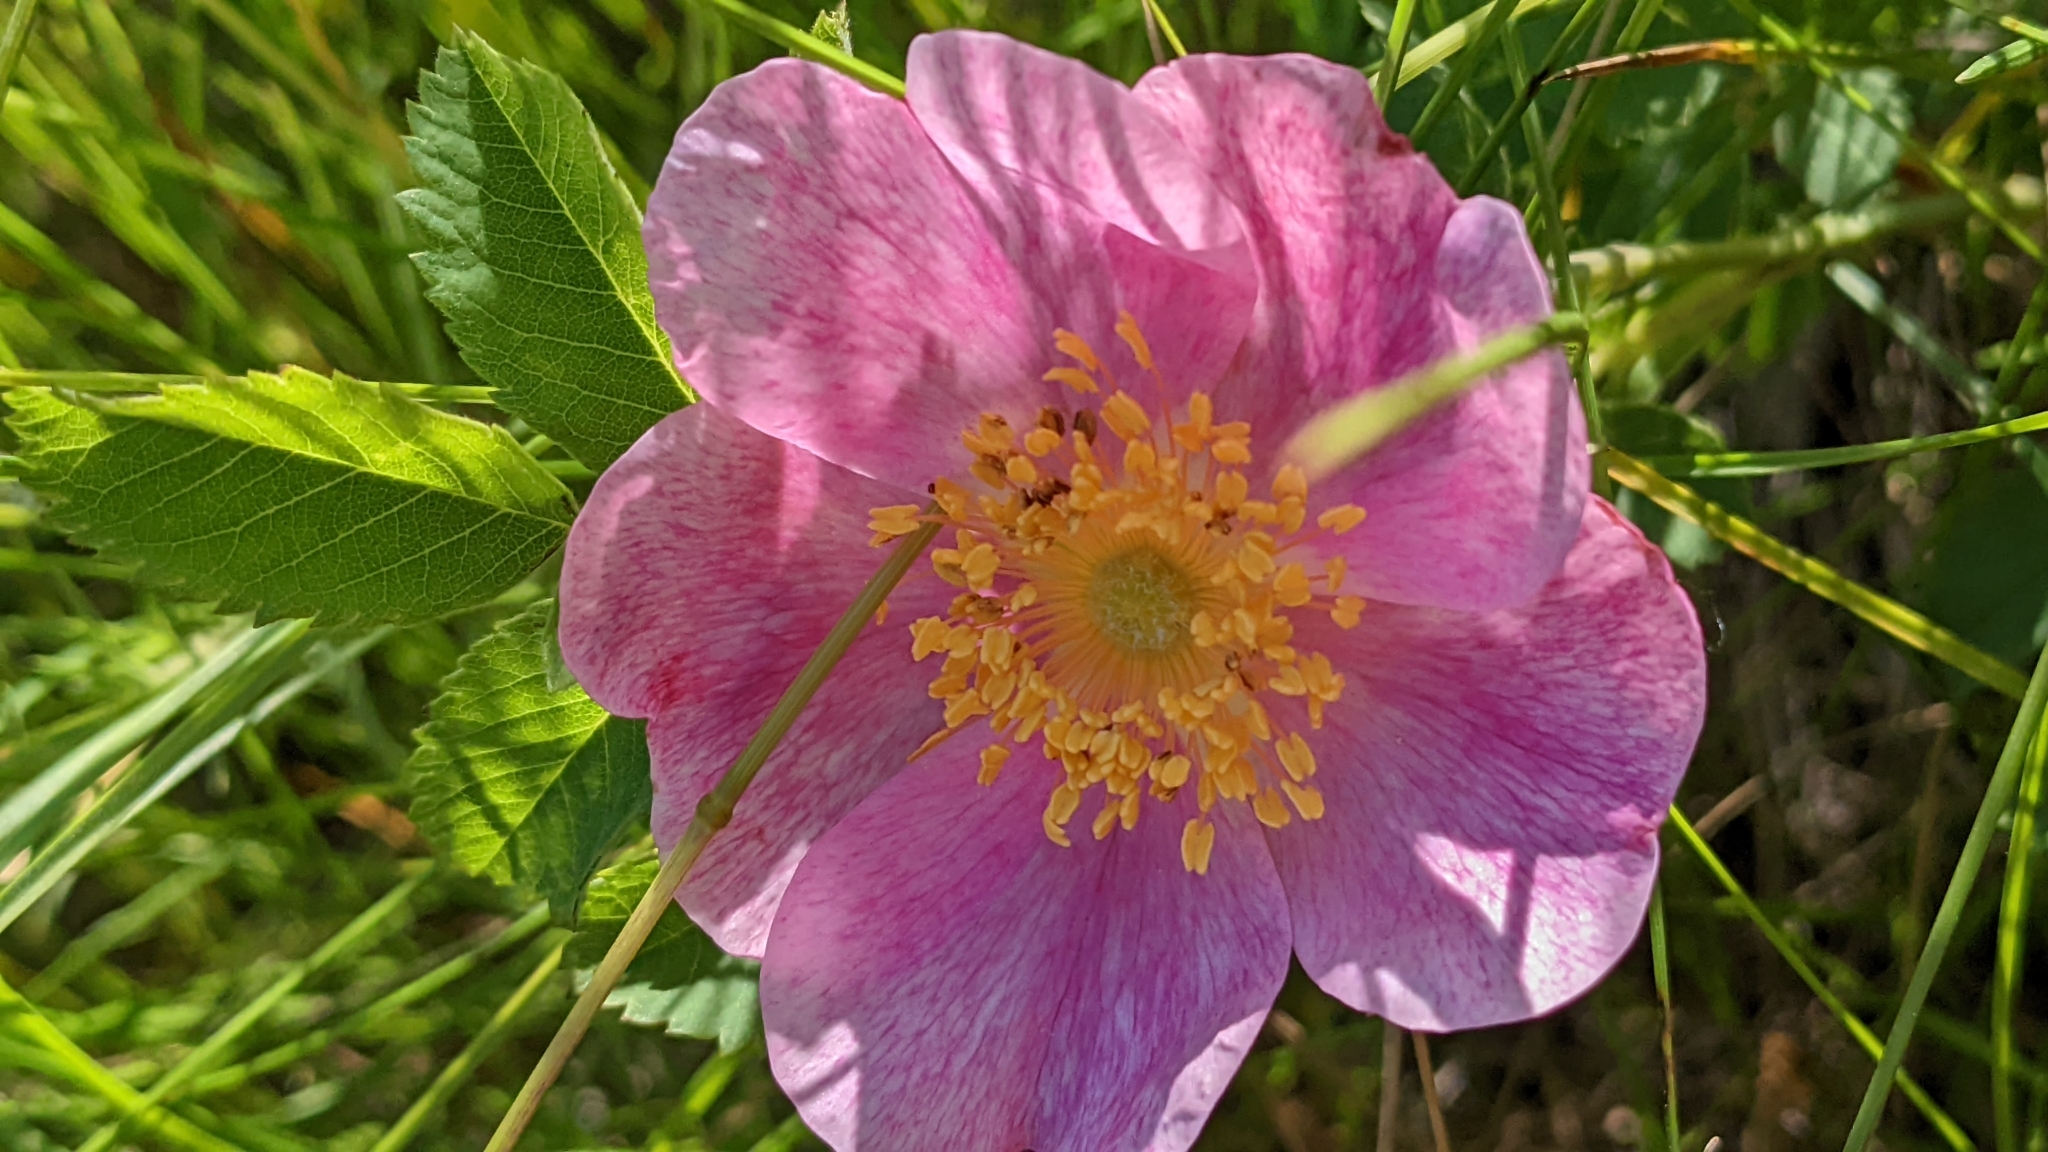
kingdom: Plantae
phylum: Tracheophyta
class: Magnoliopsida
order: Rosales
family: Rosaceae
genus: Rosa
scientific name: Rosa arkansana
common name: Prairie rose
